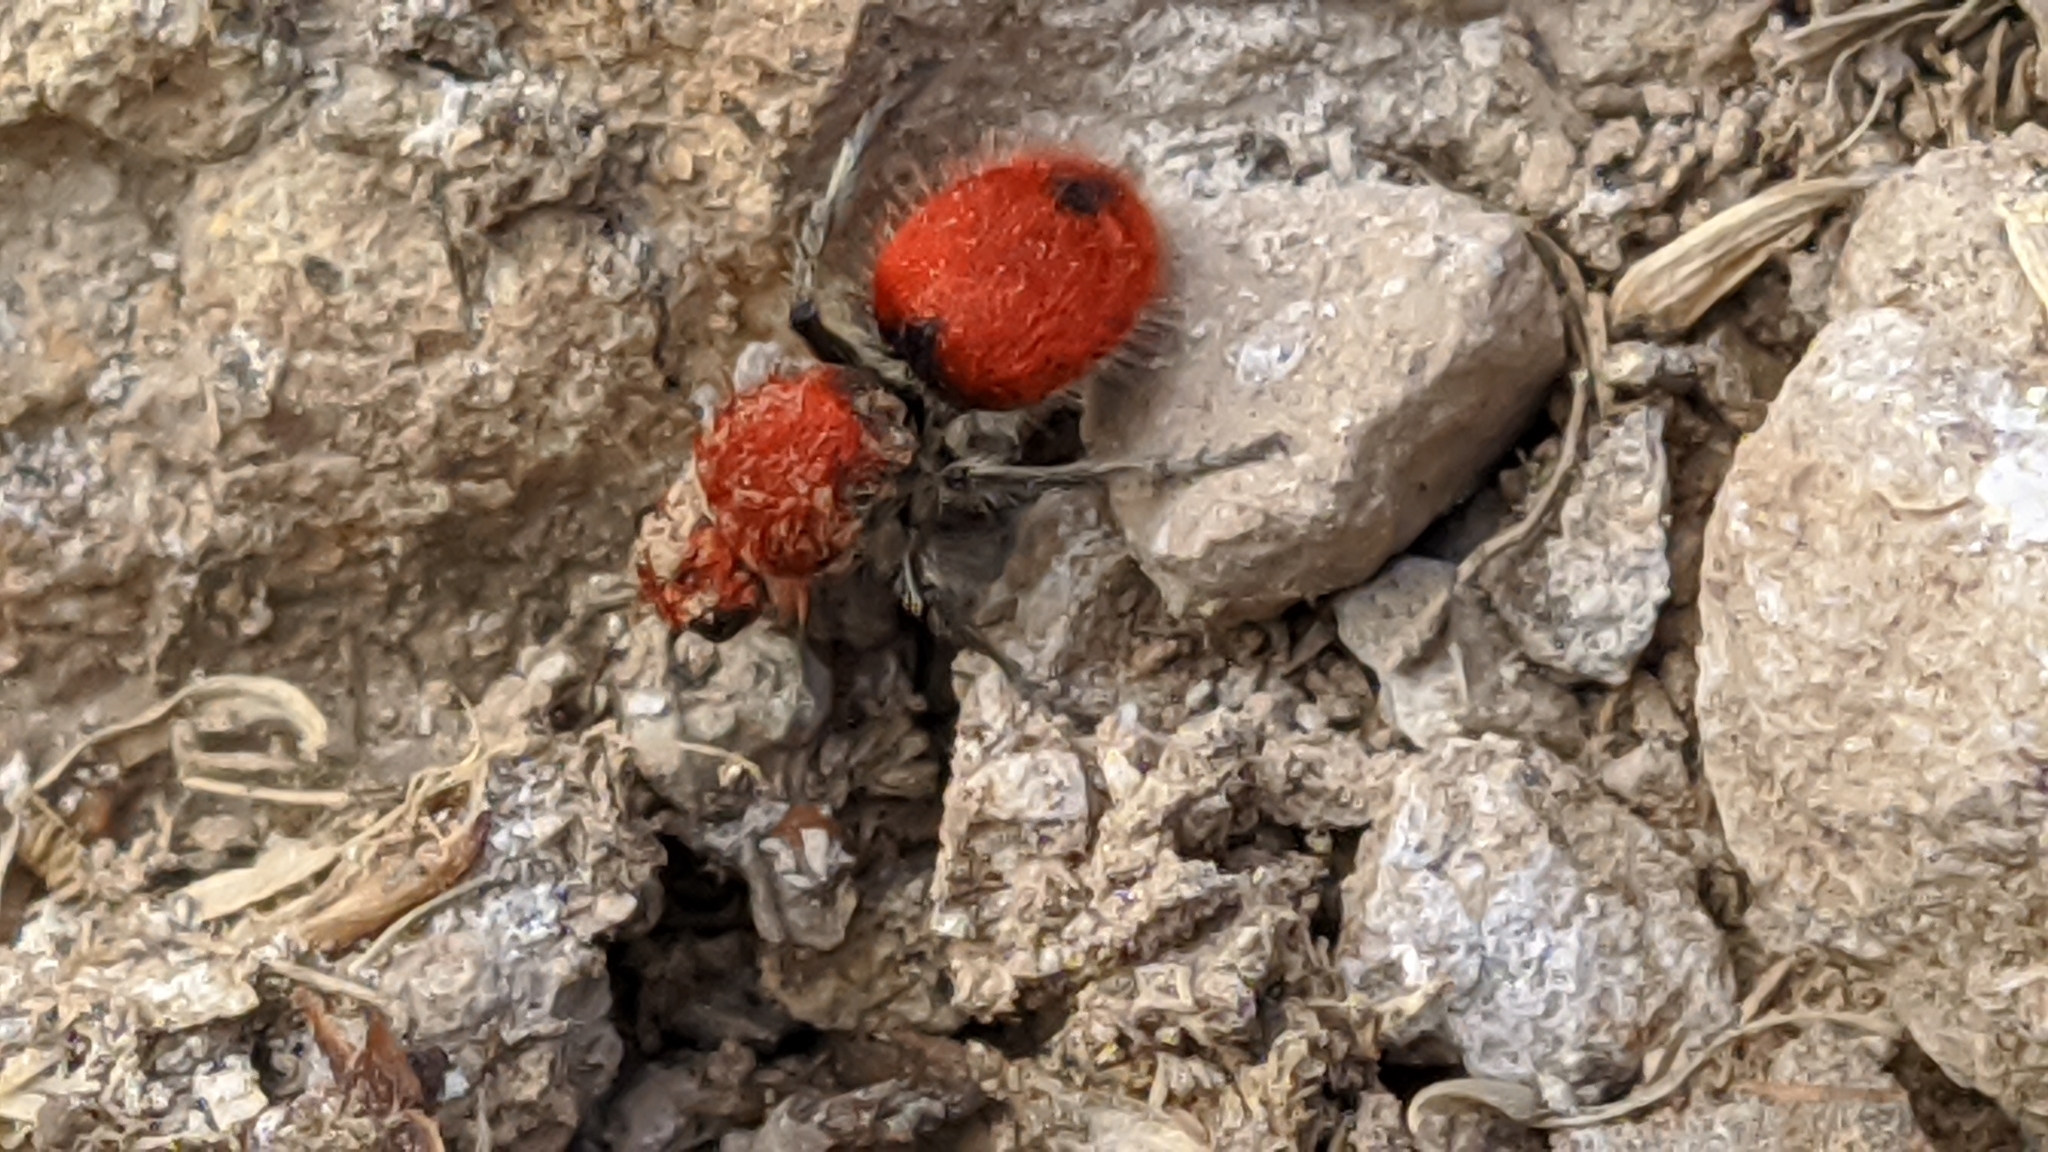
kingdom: Animalia
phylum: Arthropoda
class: Insecta
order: Hymenoptera
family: Mutillidae
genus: Dasymutilla
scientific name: Dasymutilla
